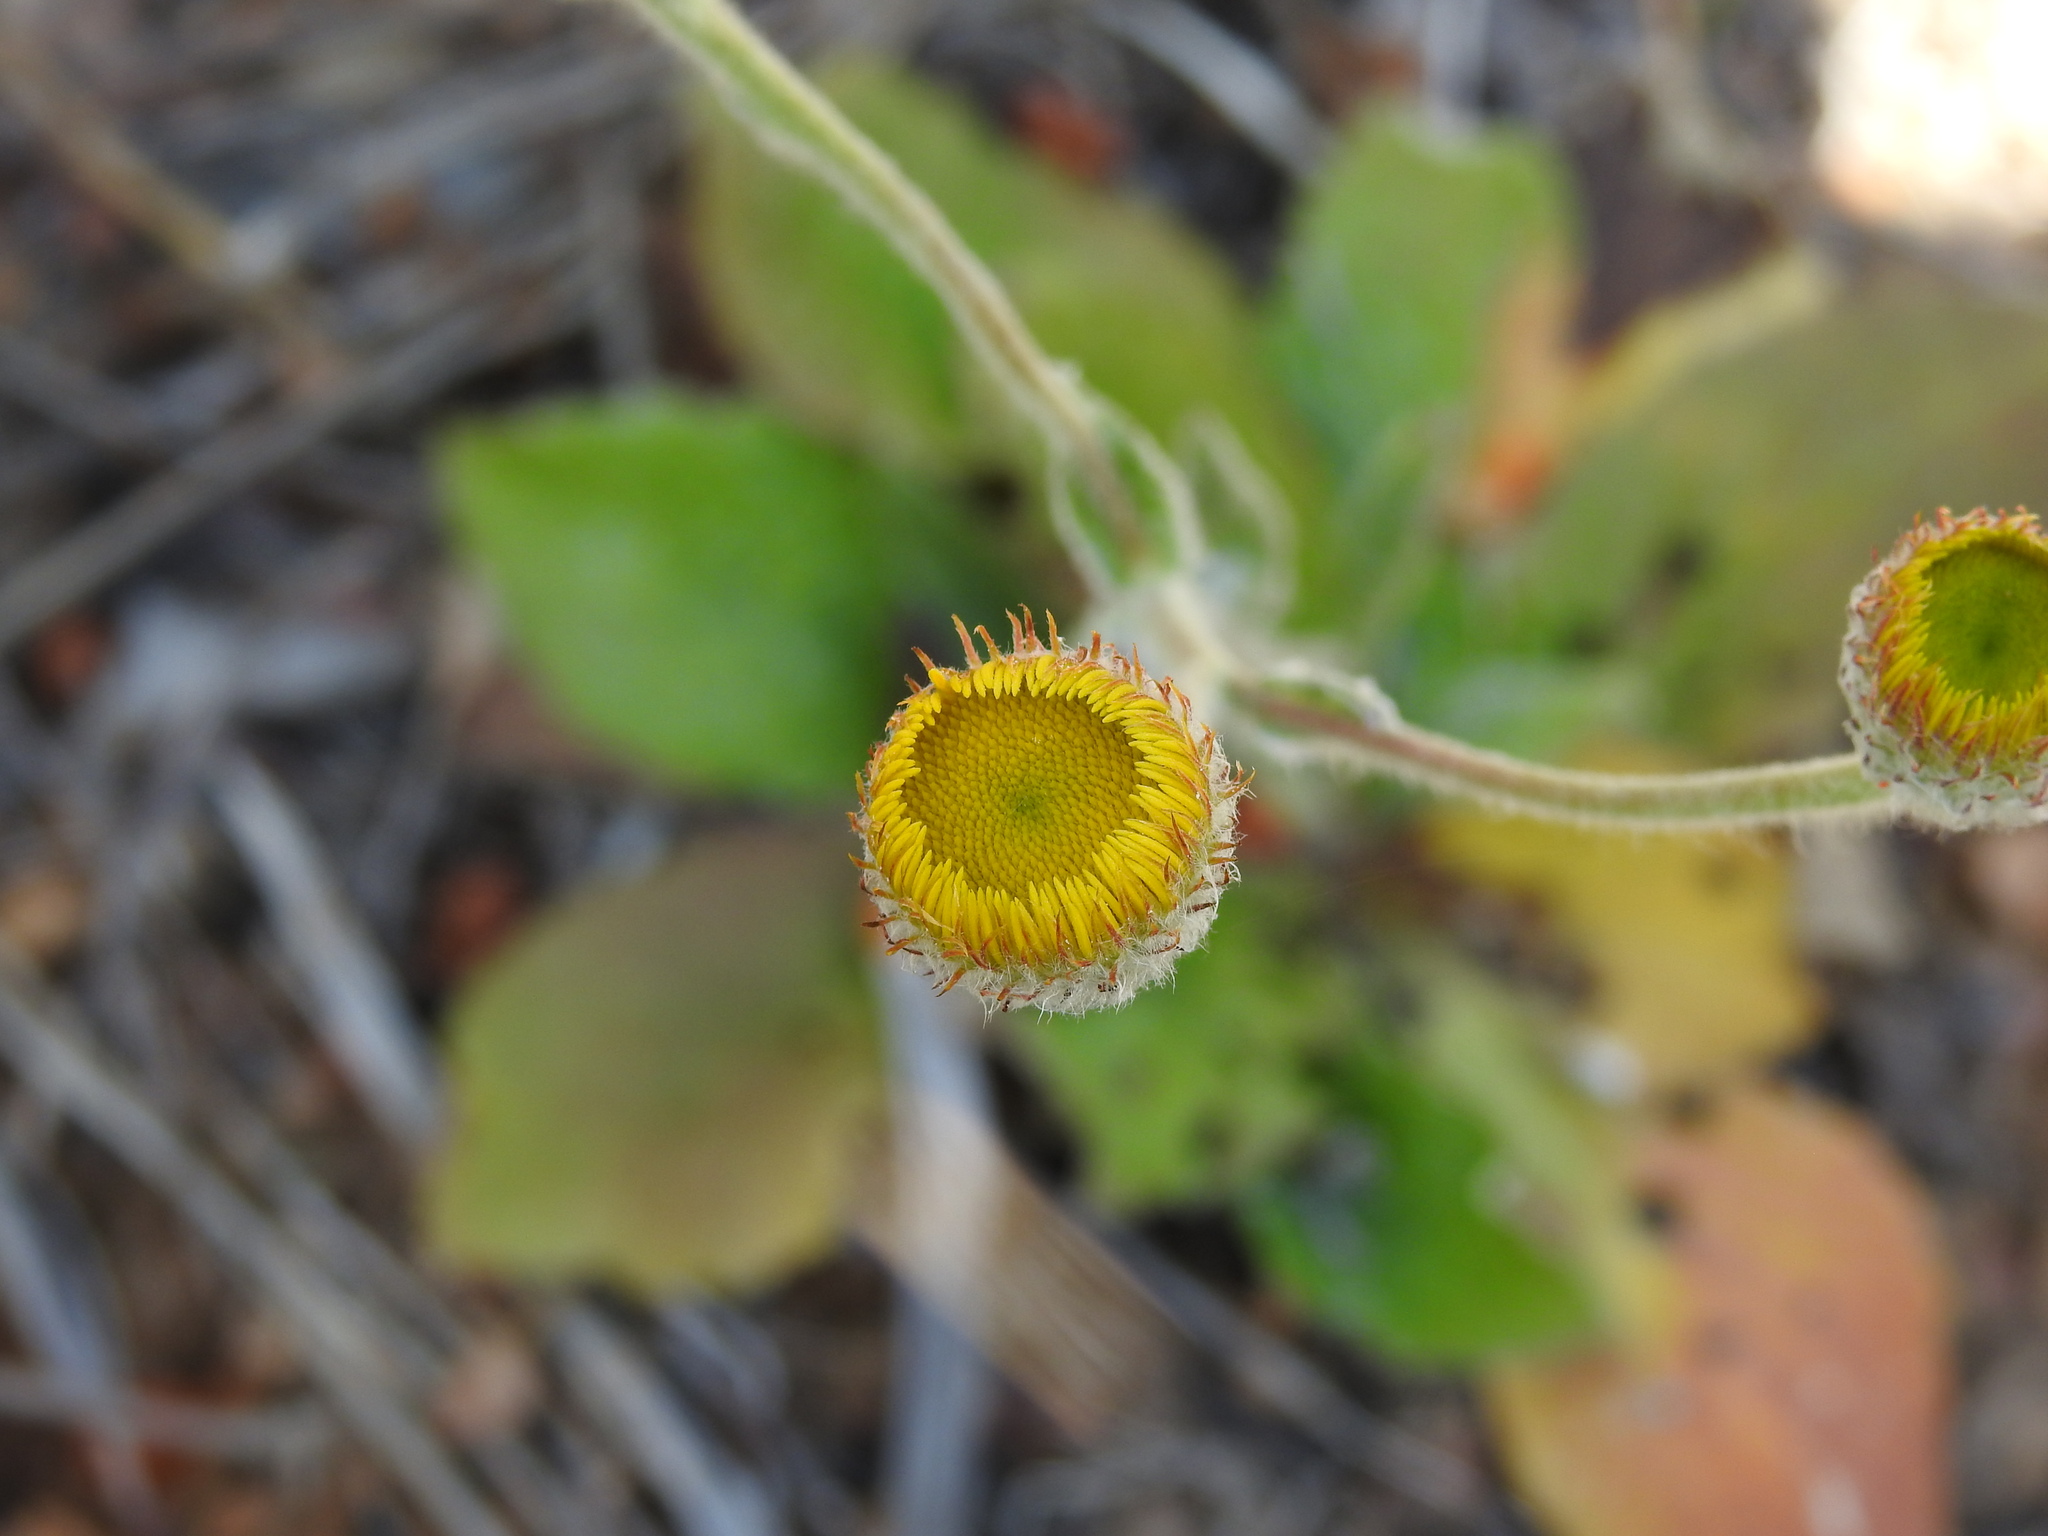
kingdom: Plantae
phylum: Tracheophyta
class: Magnoliopsida
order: Asterales
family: Asteraceae
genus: Pulicaria
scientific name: Pulicaria odora
